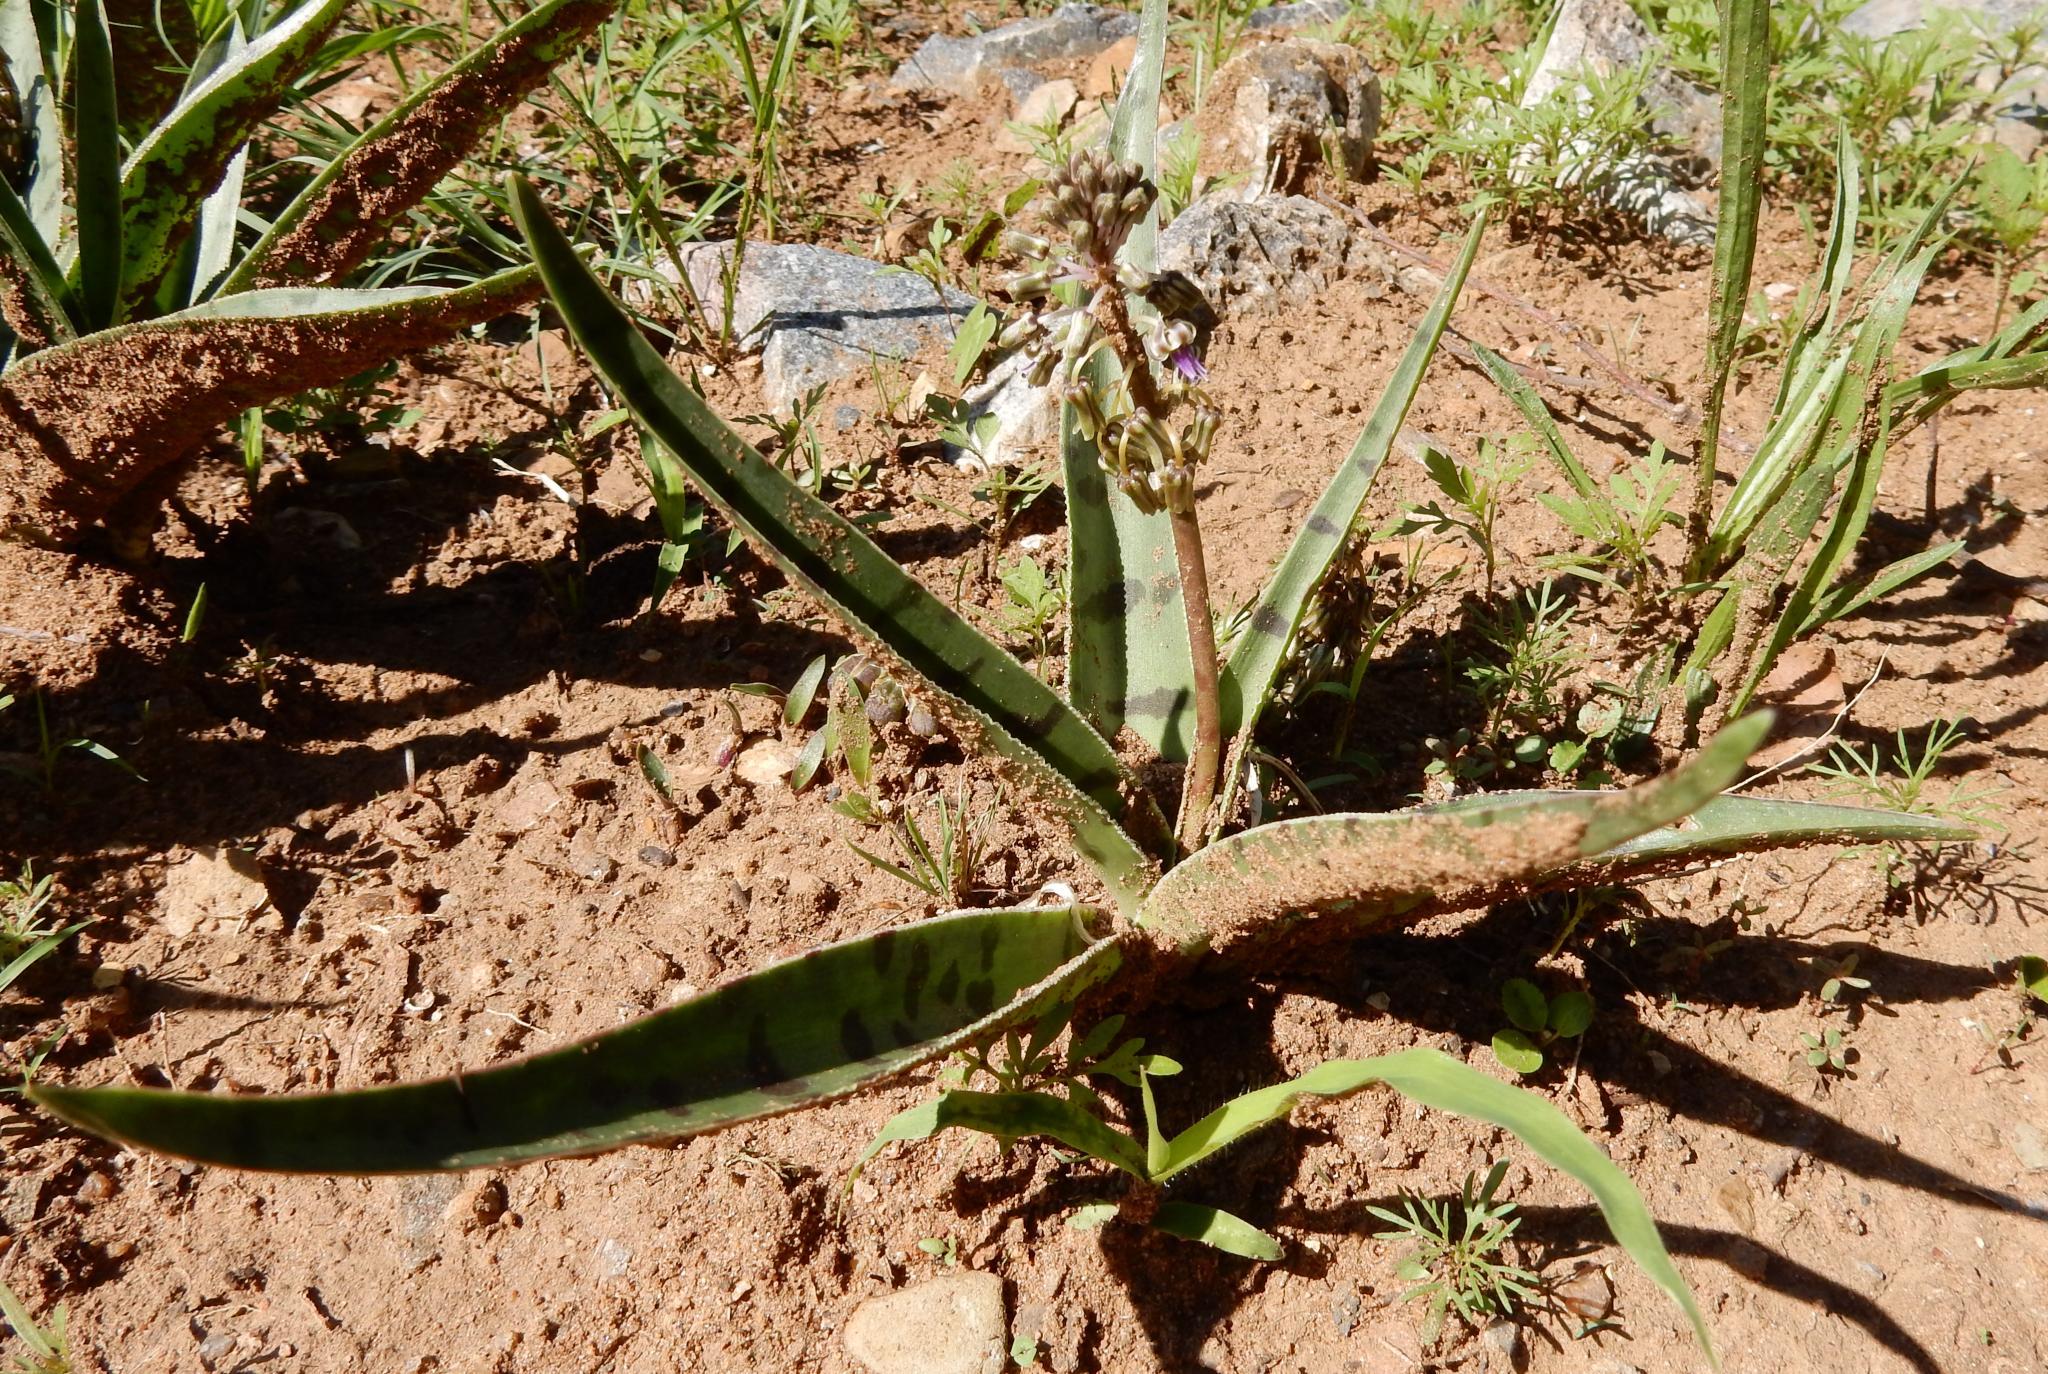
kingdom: Plantae
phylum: Tracheophyta
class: Liliopsida
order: Asparagales
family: Asparagaceae
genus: Ledebouria
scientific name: Ledebouria luteola
